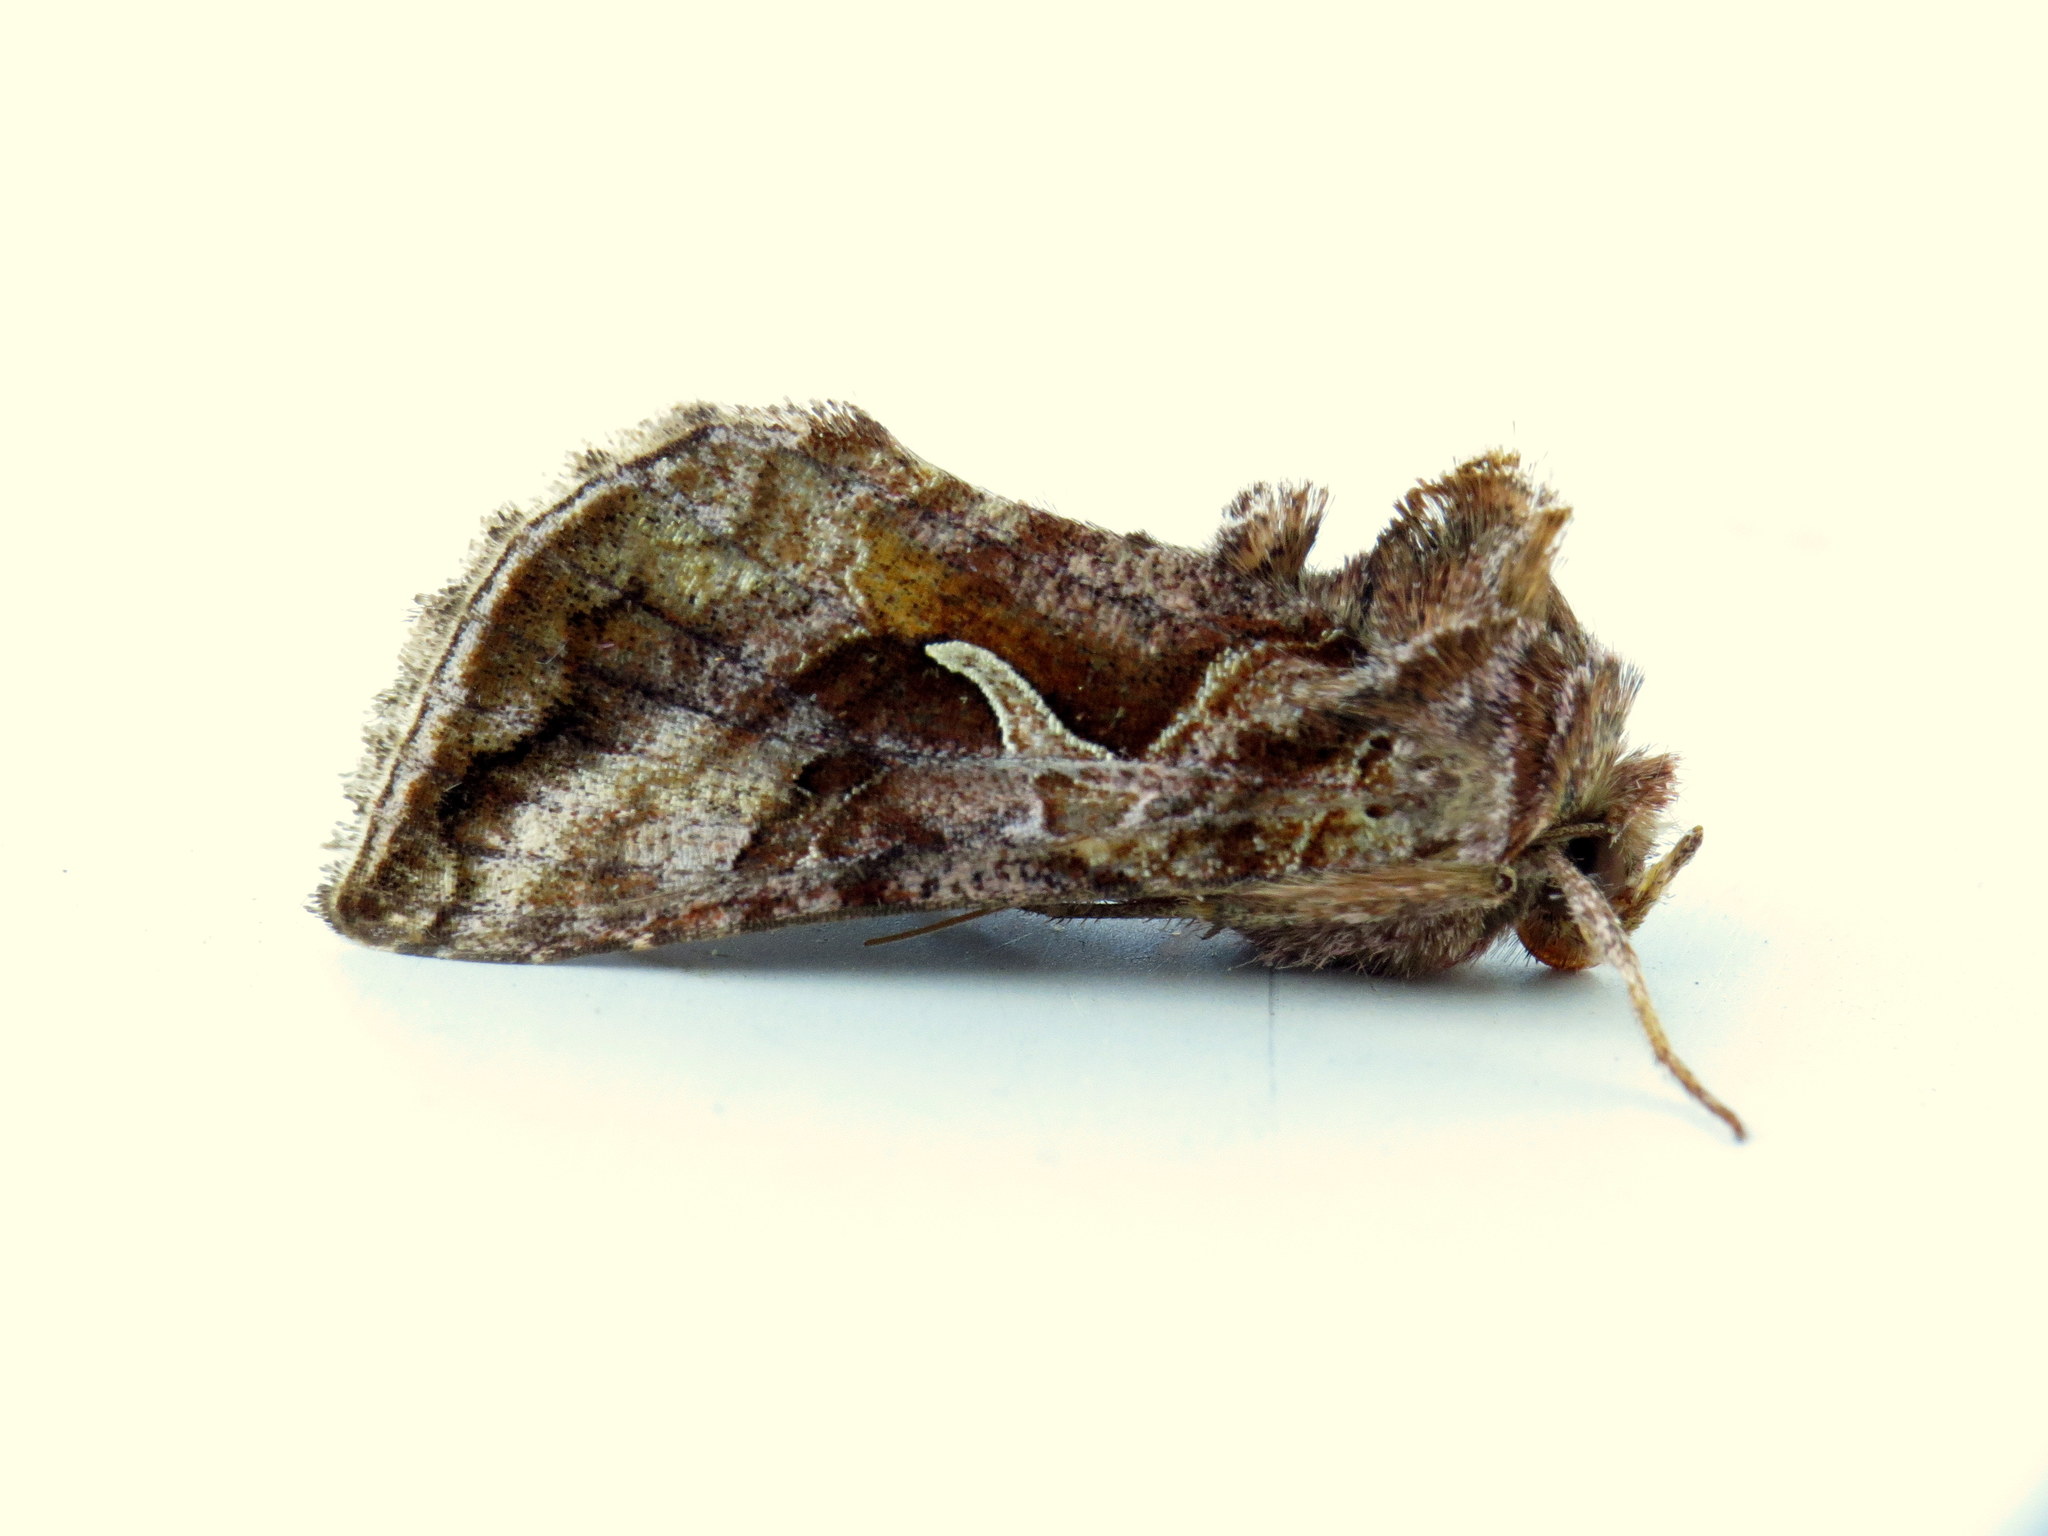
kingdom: Animalia
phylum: Arthropoda
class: Insecta
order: Lepidoptera
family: Noctuidae
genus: Autographa
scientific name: Autographa rubidus
